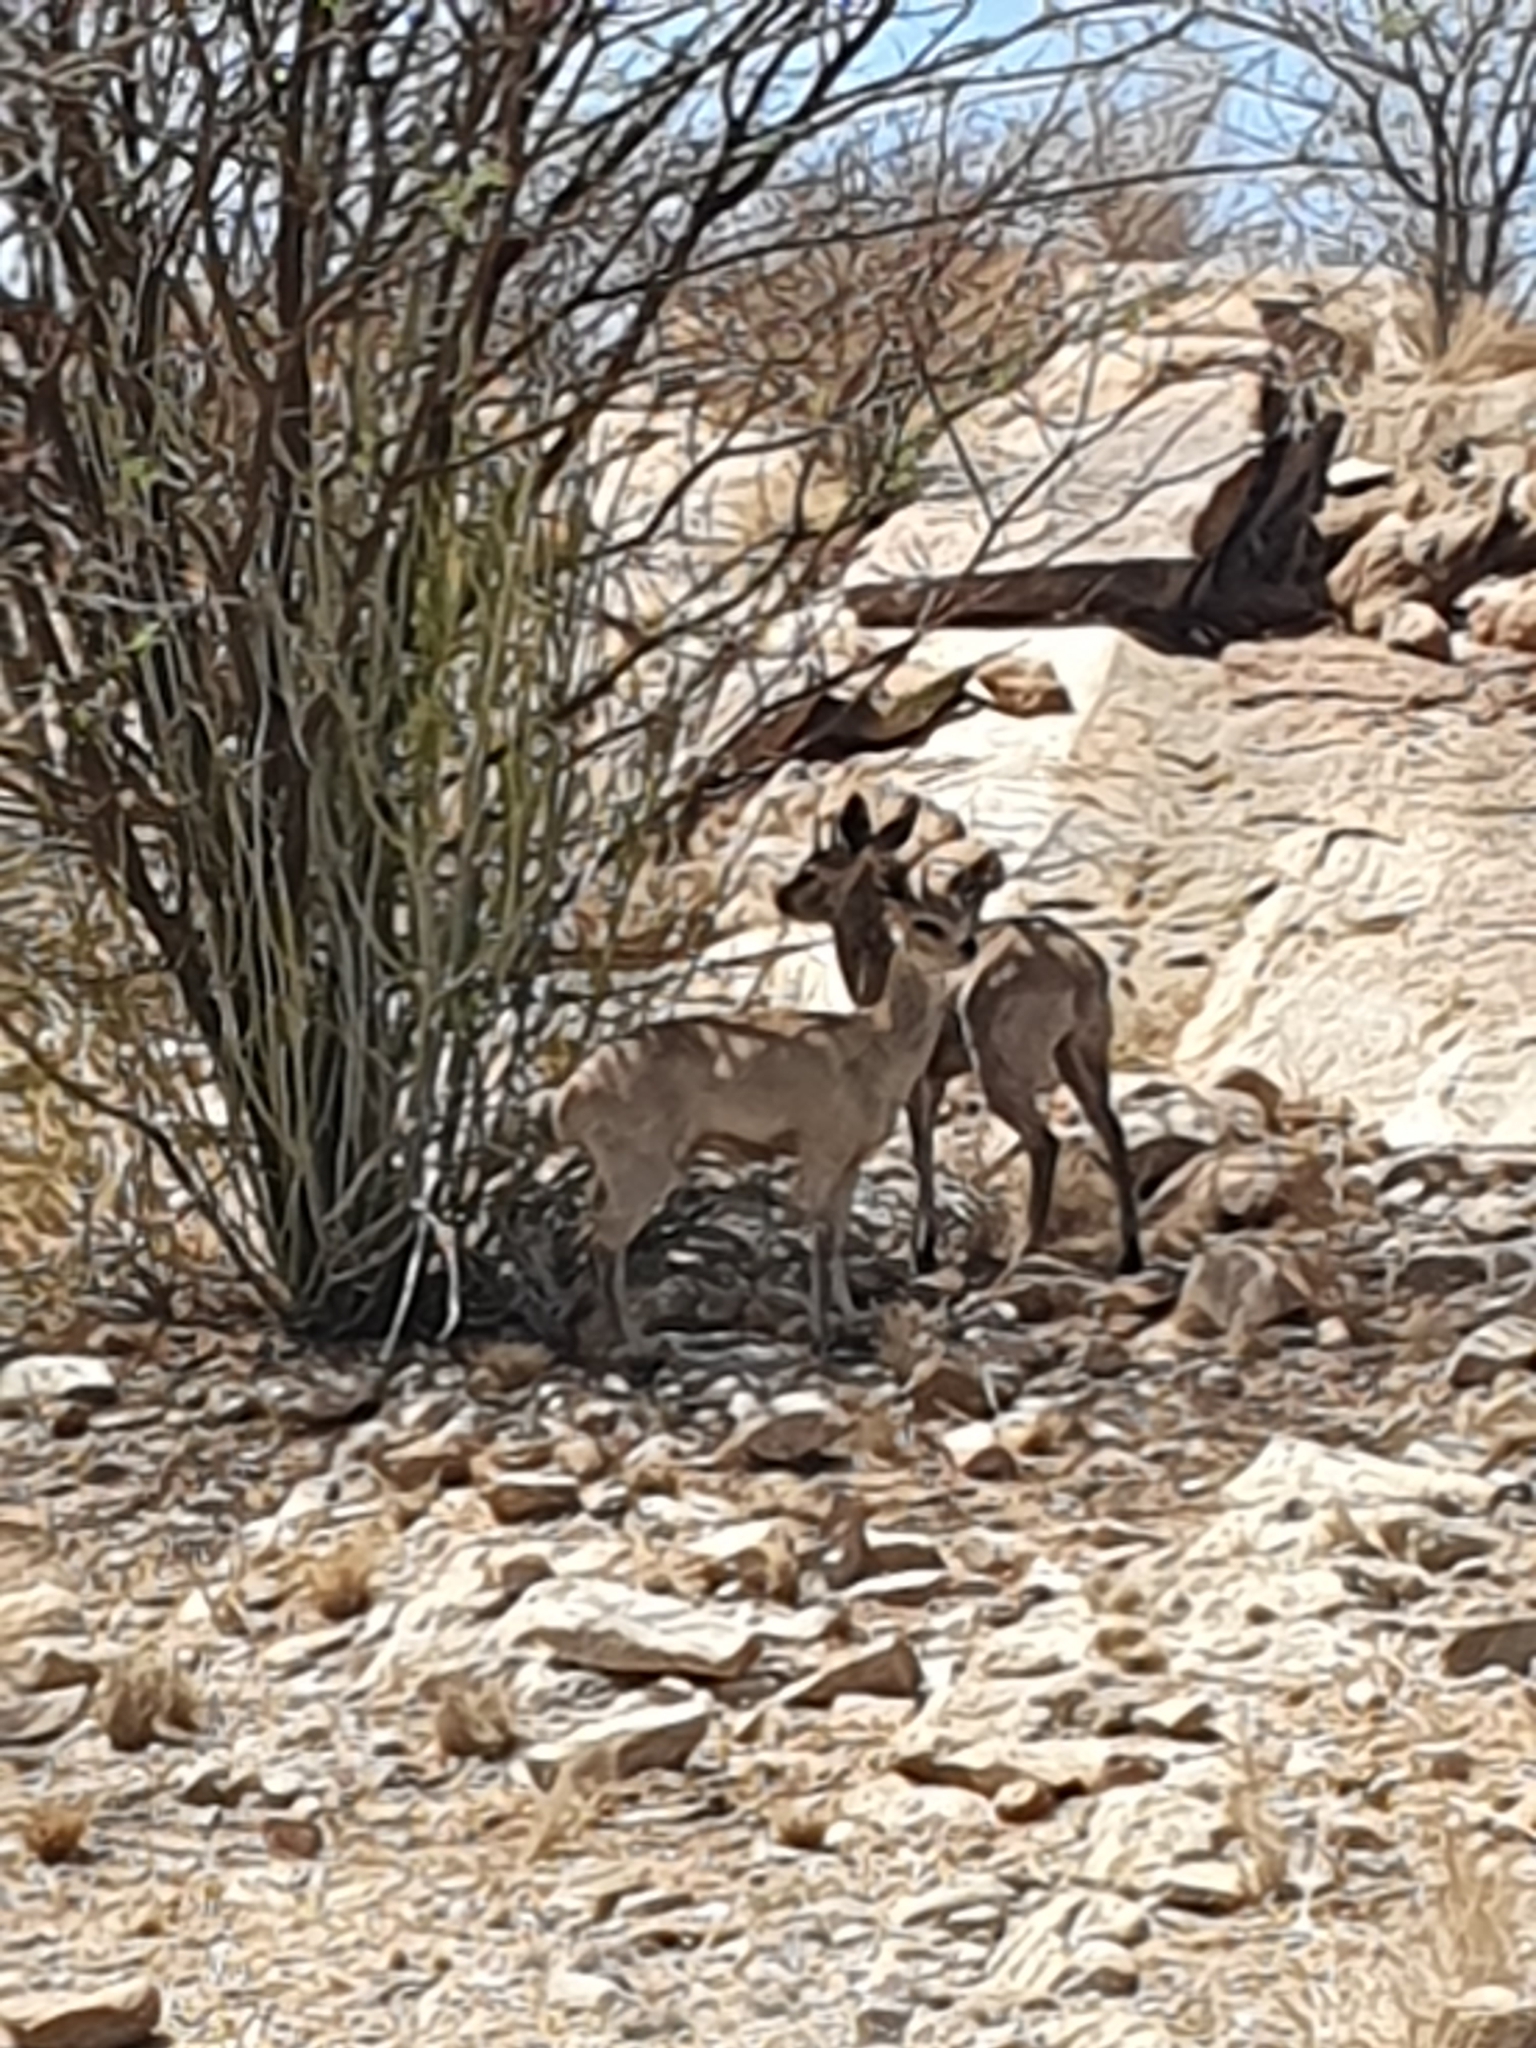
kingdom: Animalia
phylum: Chordata
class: Mammalia
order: Artiodactyla
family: Bovidae
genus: Oreotragus
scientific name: Oreotragus oreotragus
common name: Klipspringer
